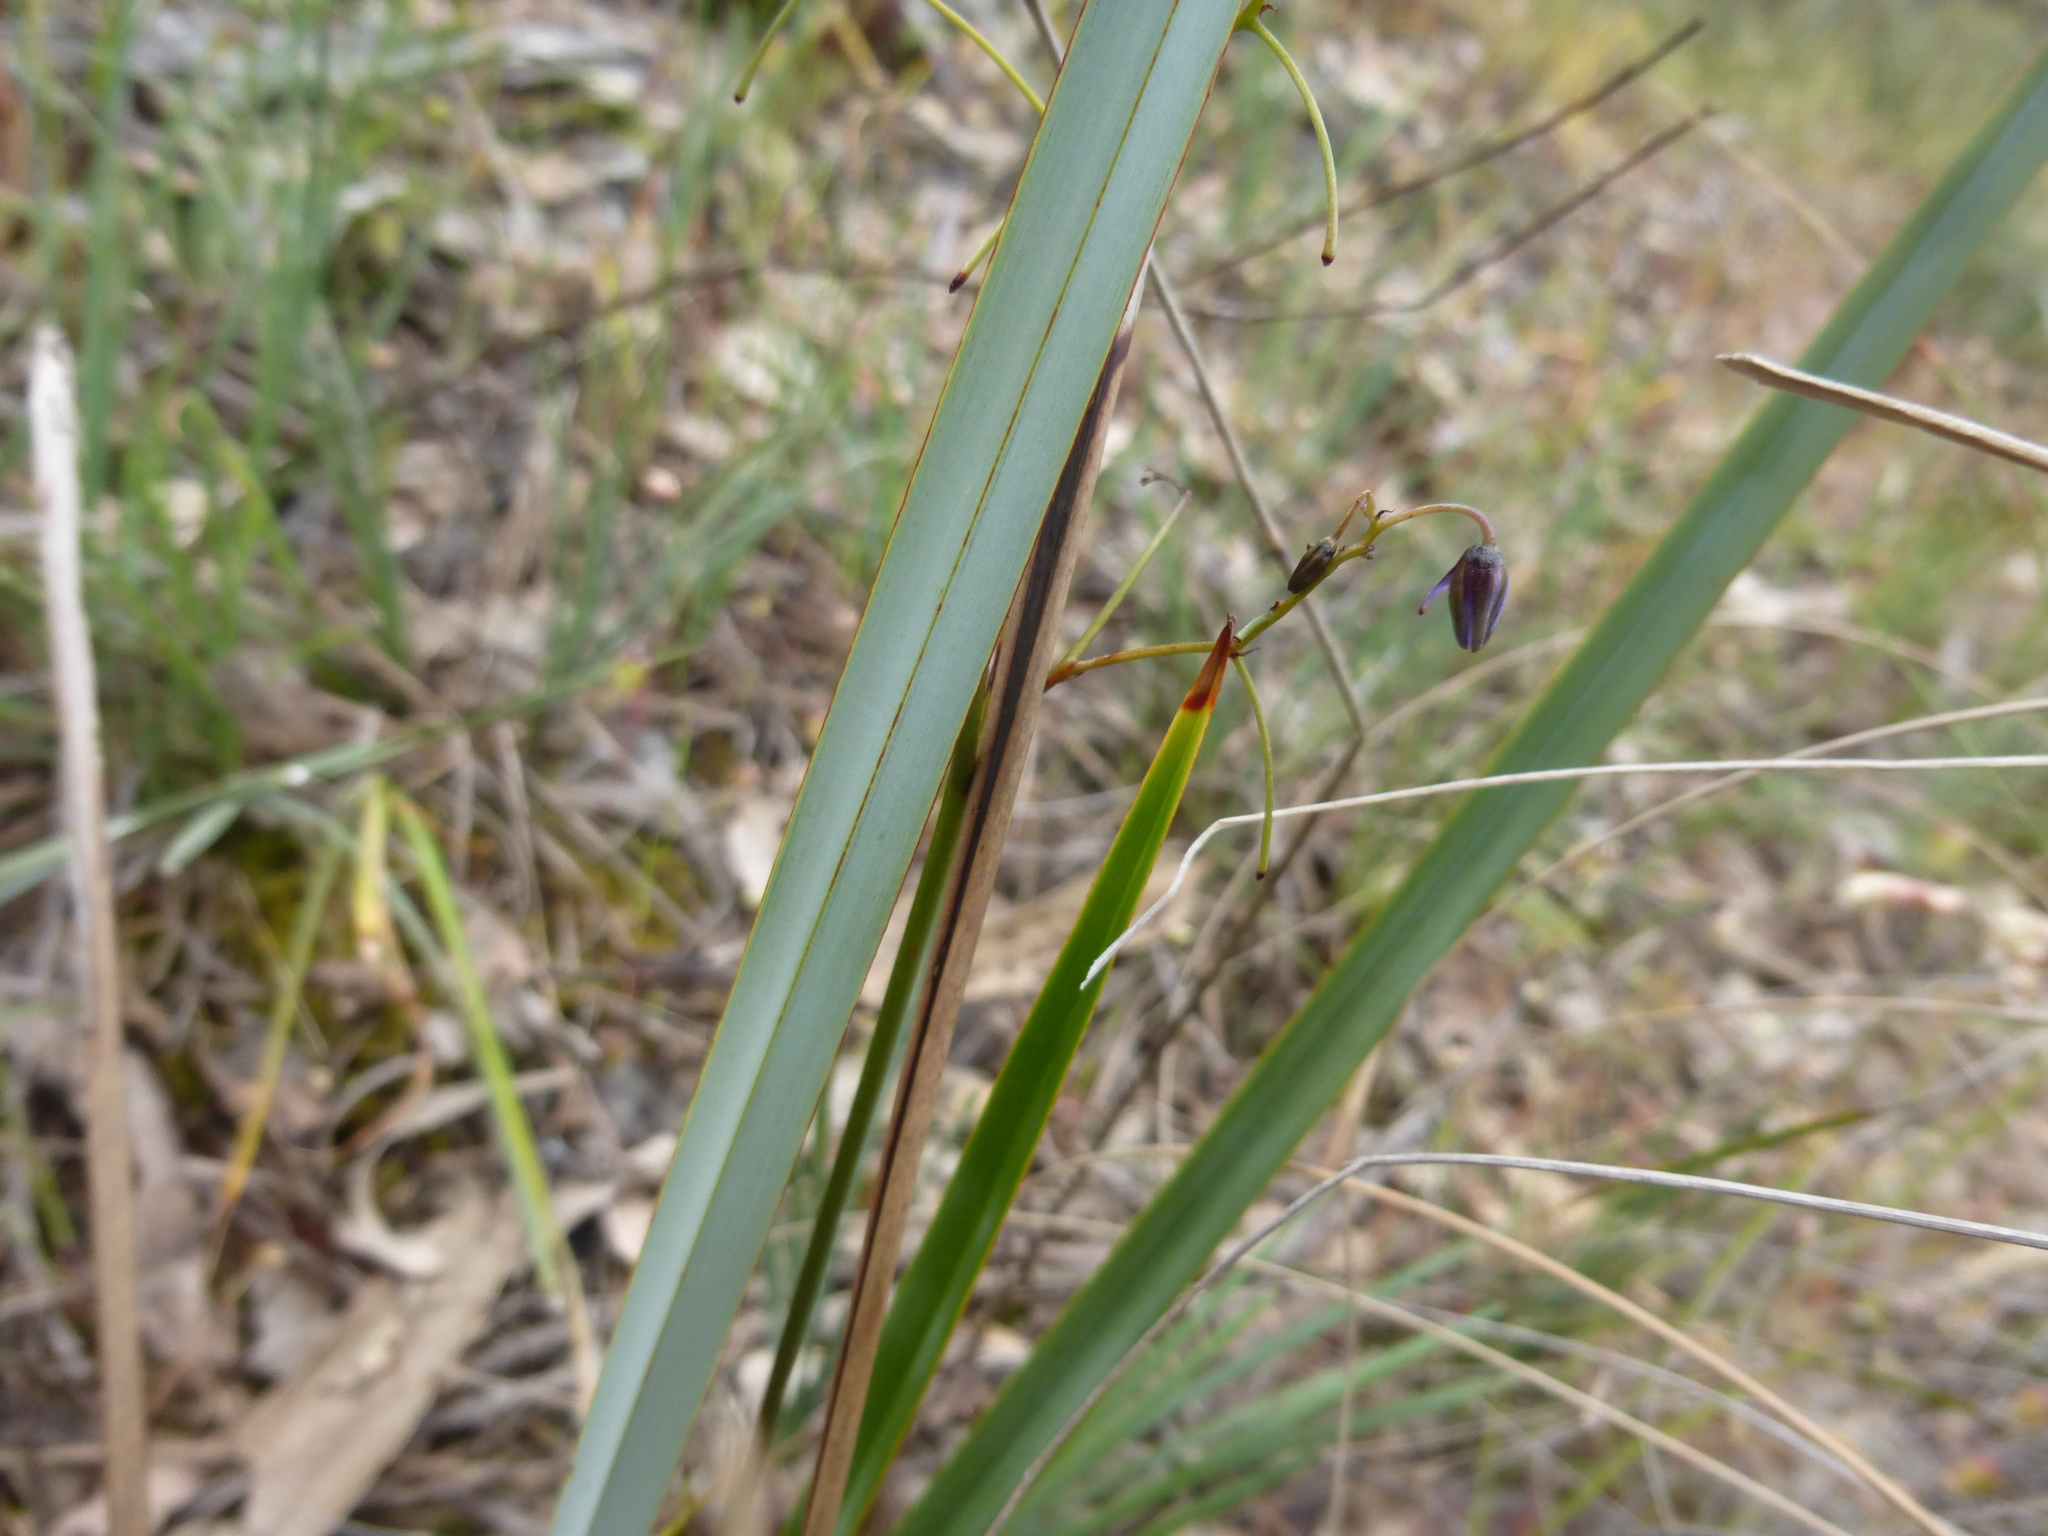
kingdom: Plantae
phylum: Tracheophyta
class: Liliopsida
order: Asparagales
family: Asphodelaceae
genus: Dianella
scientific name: Dianella revoluta
